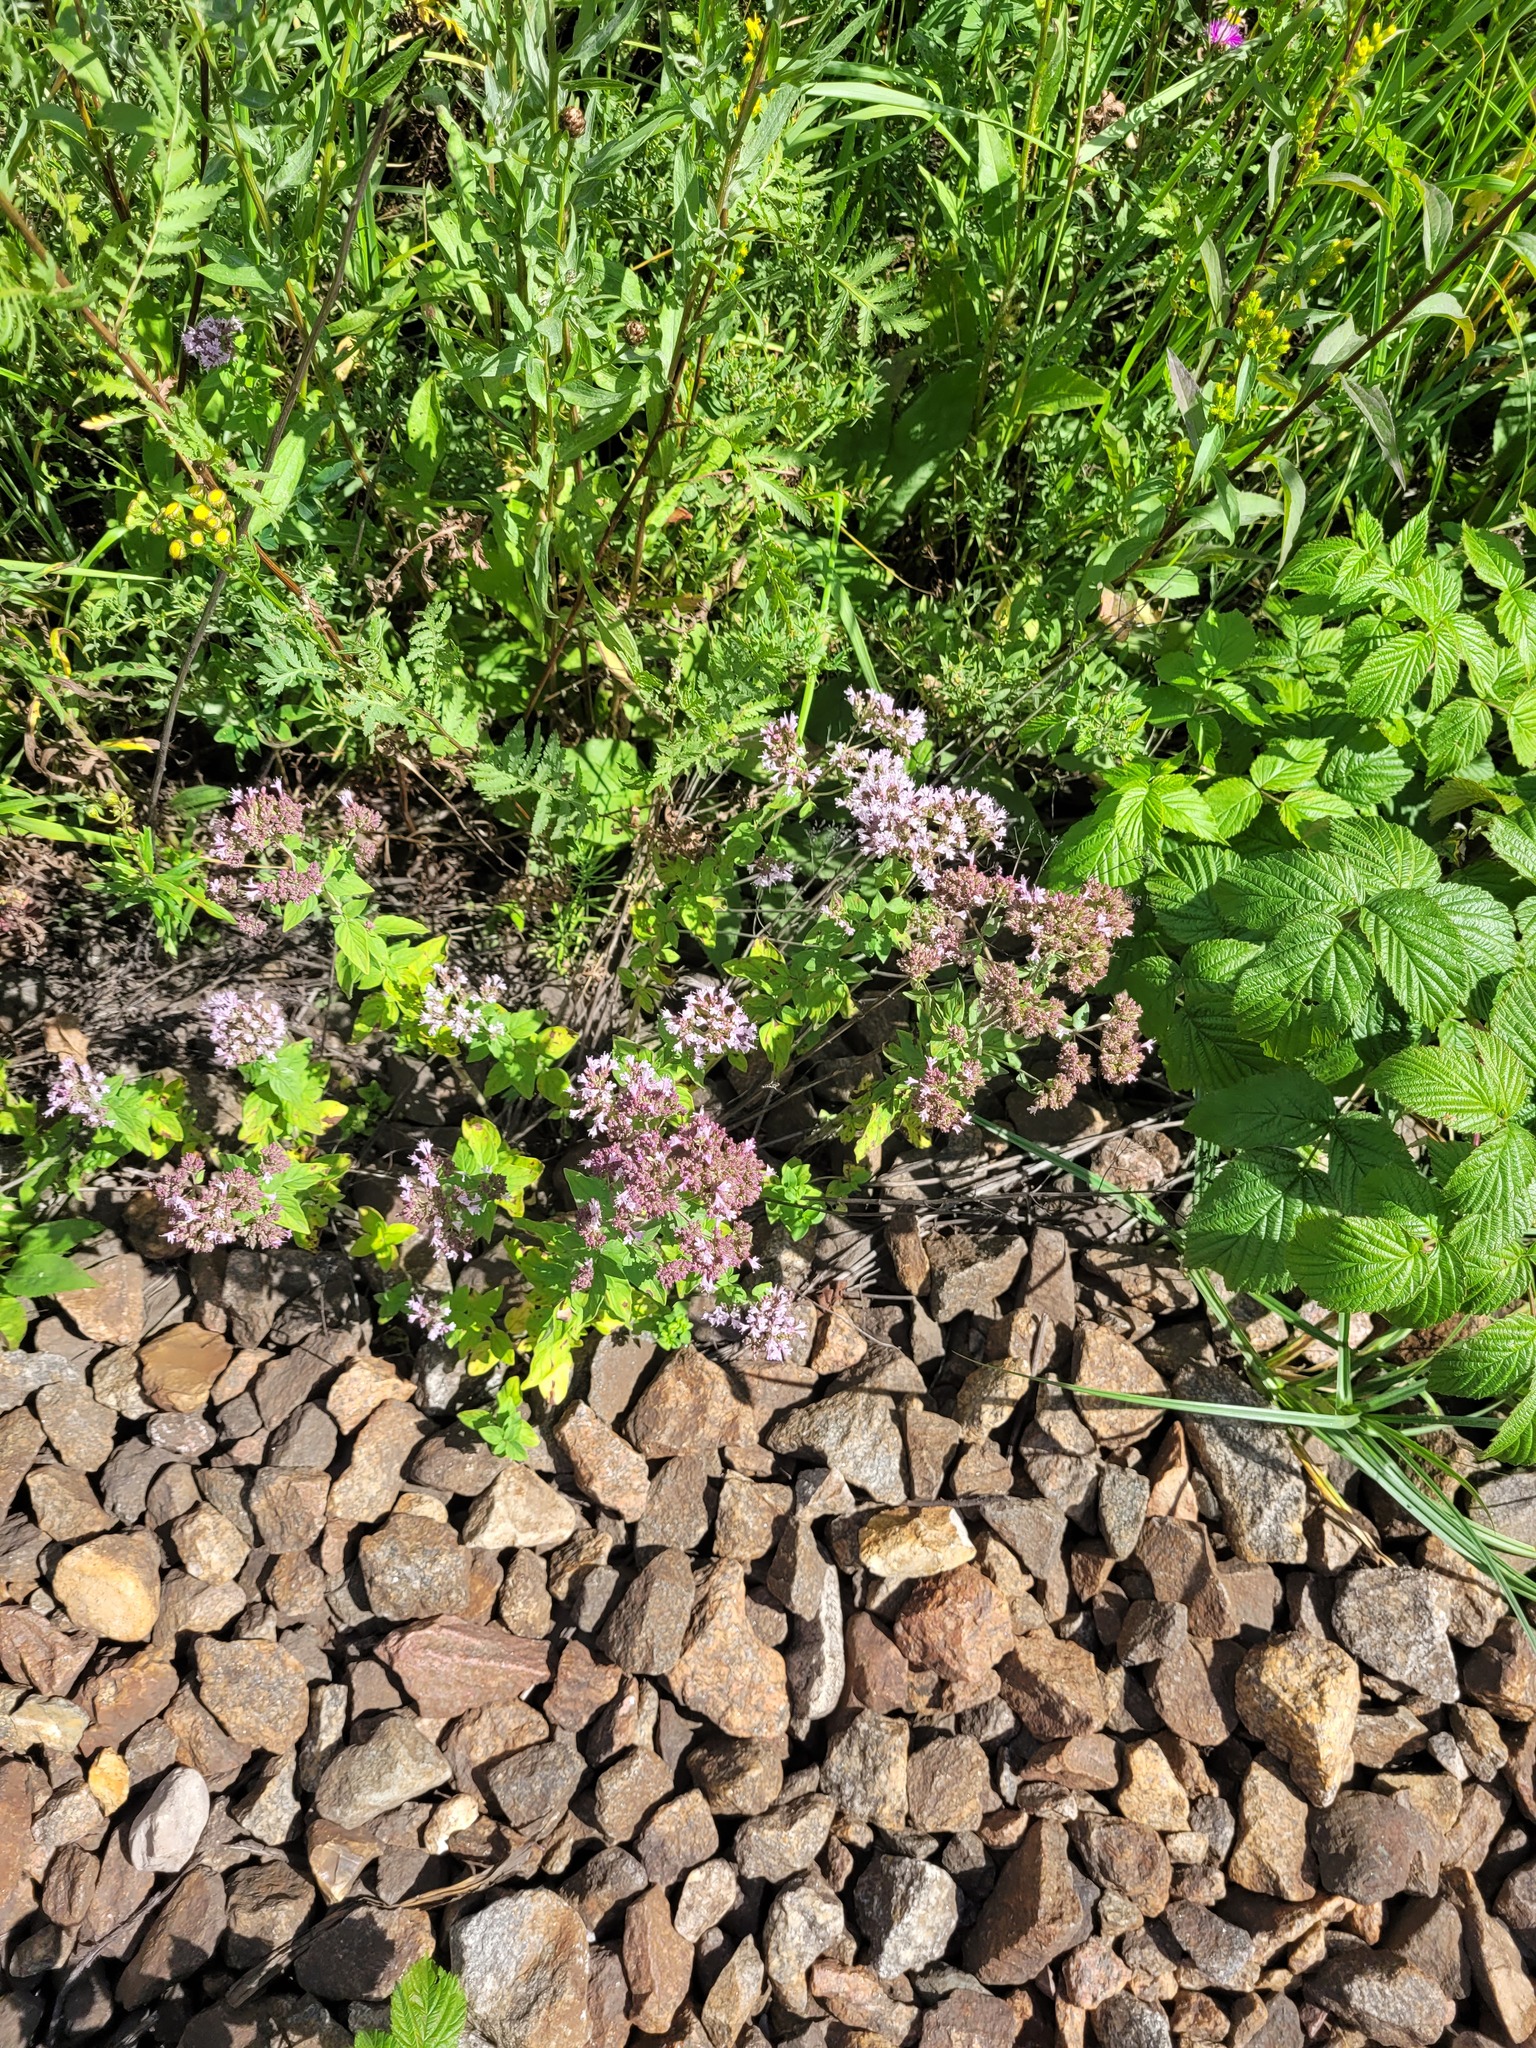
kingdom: Plantae
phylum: Tracheophyta
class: Magnoliopsida
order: Lamiales
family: Lamiaceae
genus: Origanum
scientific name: Origanum vulgare
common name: Wild marjoram
